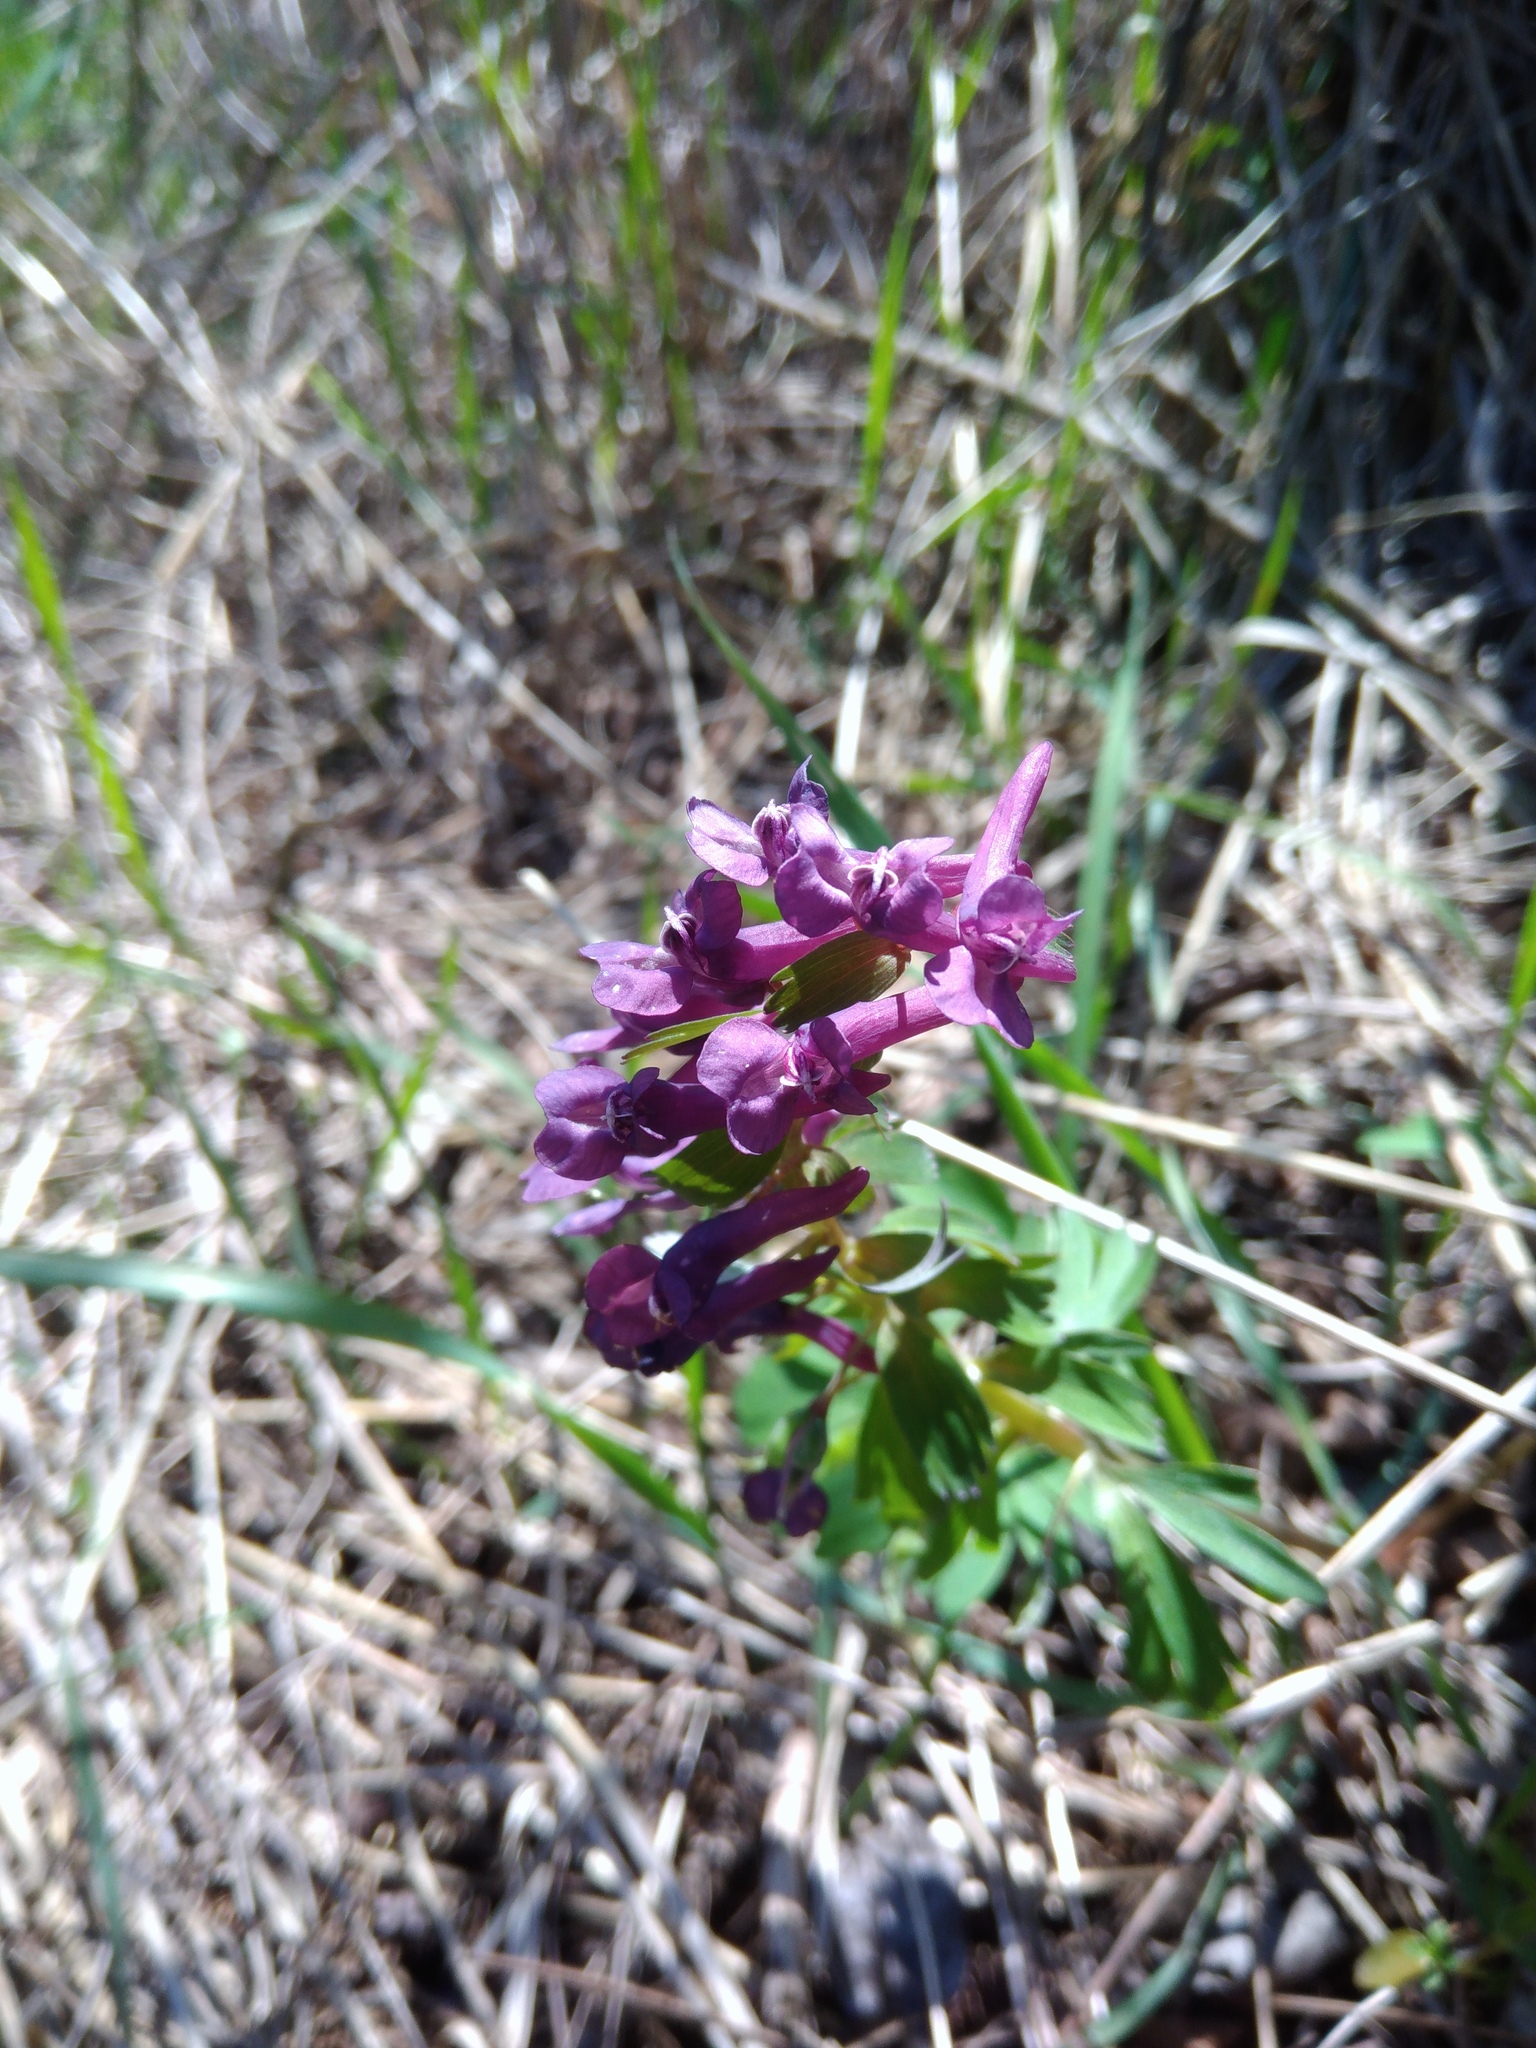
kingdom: Plantae
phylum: Tracheophyta
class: Magnoliopsida
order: Ranunculales
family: Papaveraceae
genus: Corydalis
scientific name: Corydalis solida
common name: Bird-in-a-bush
